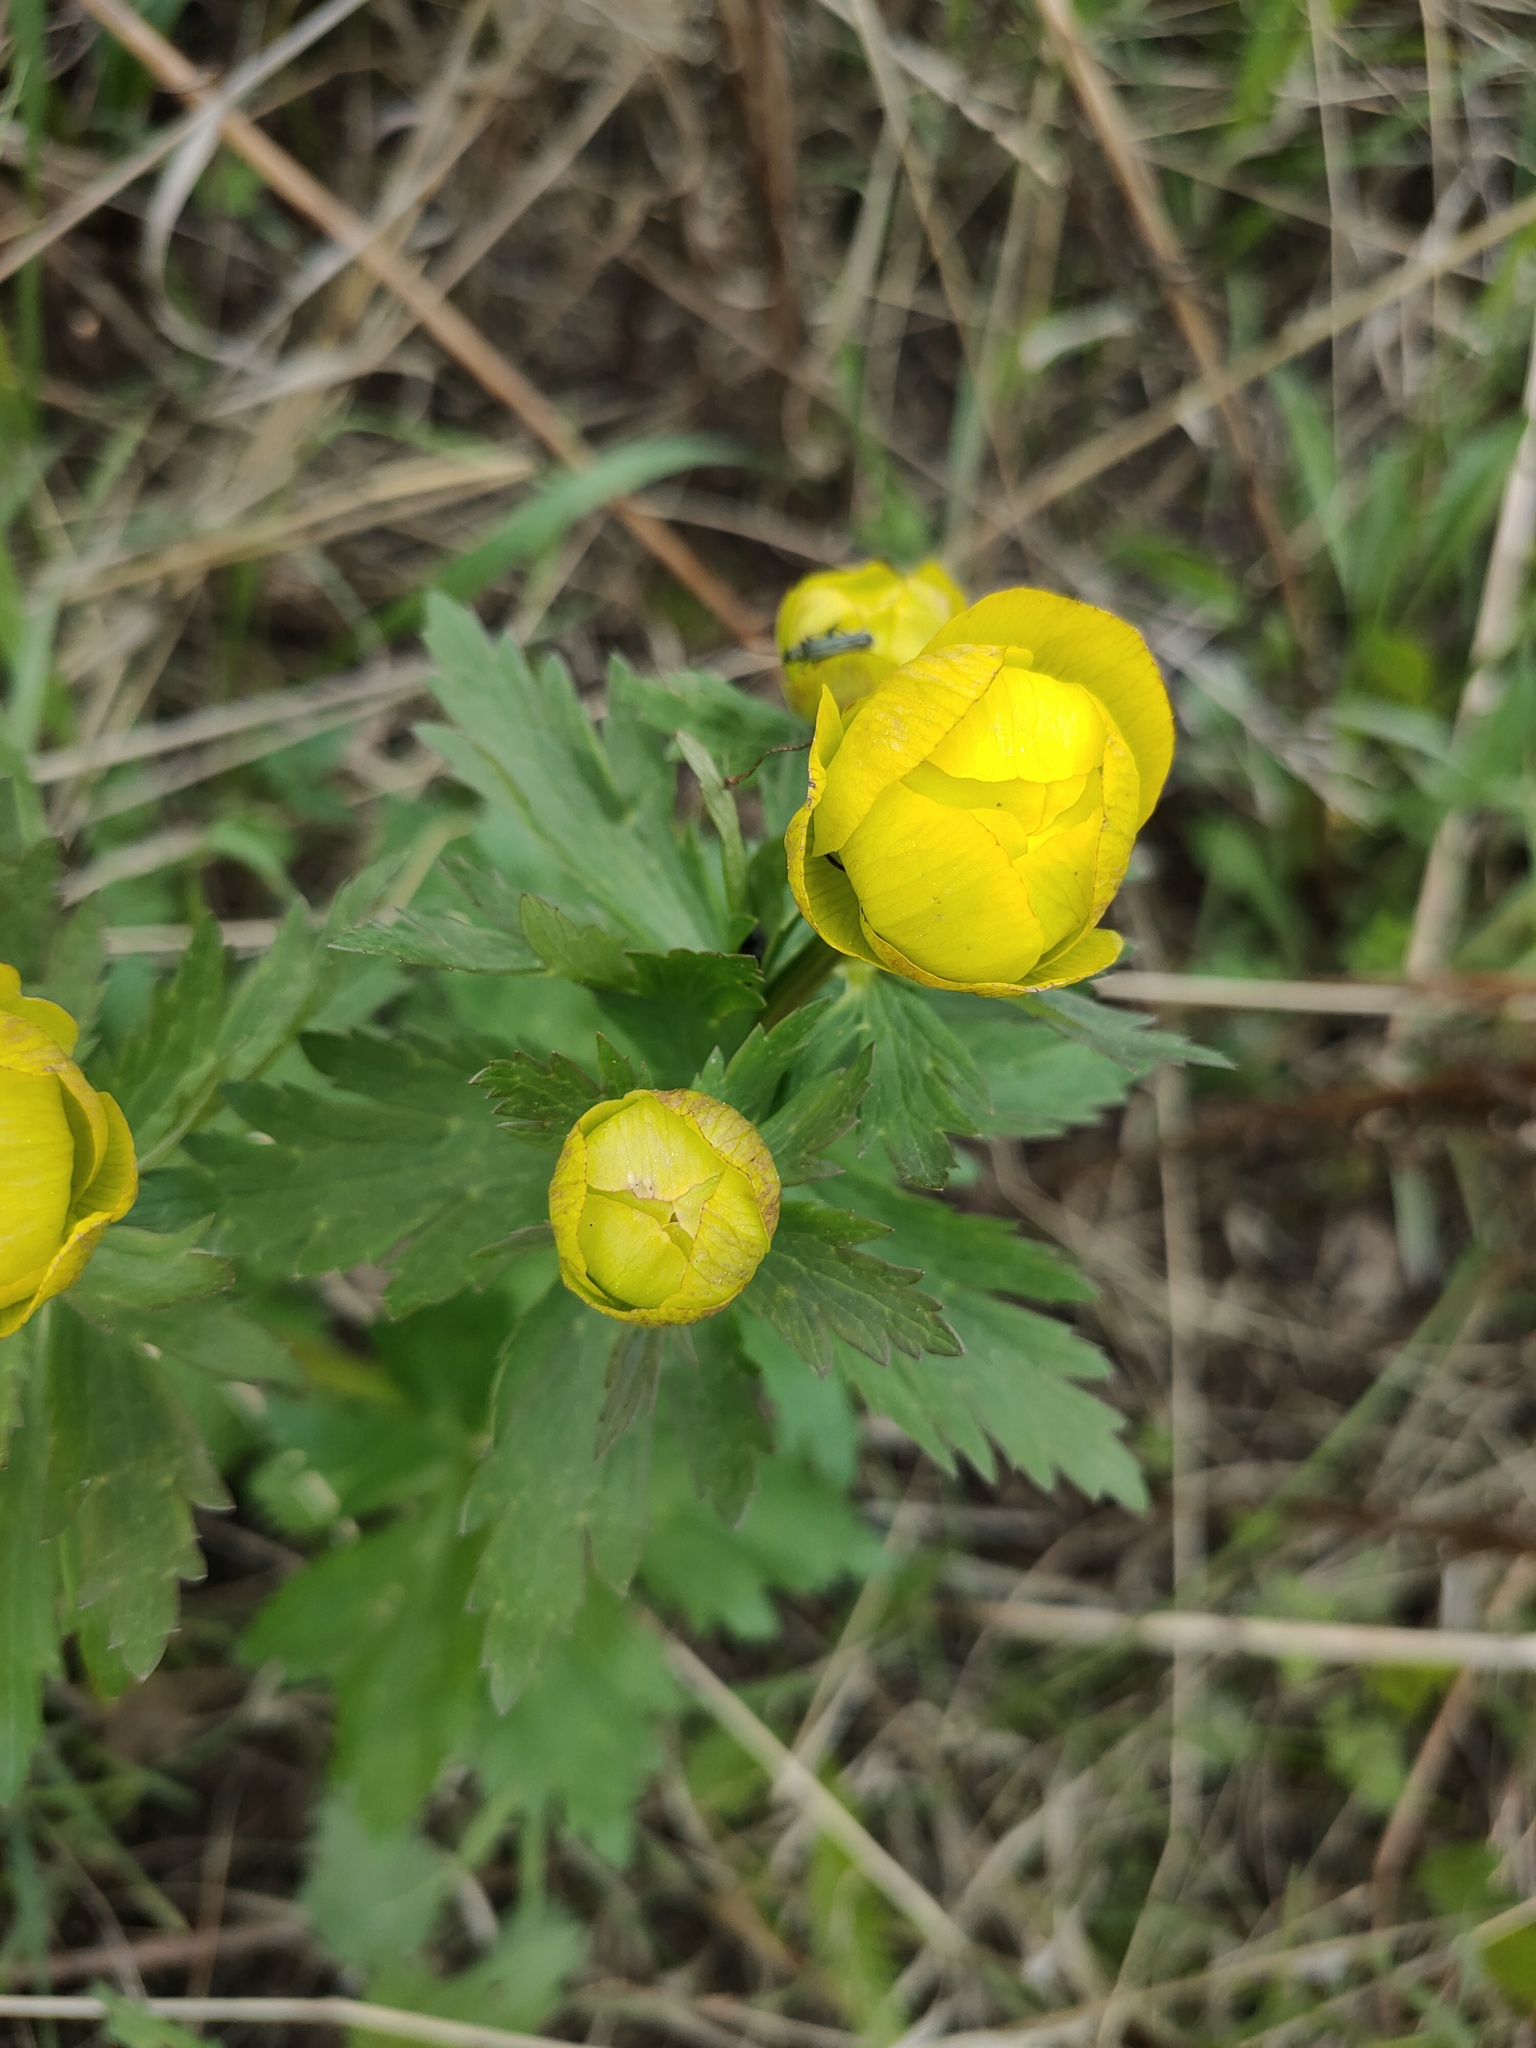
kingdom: Plantae
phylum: Tracheophyta
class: Magnoliopsida
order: Ranunculales
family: Ranunculaceae
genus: Trollius
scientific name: Trollius europaeus
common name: European globeflower
